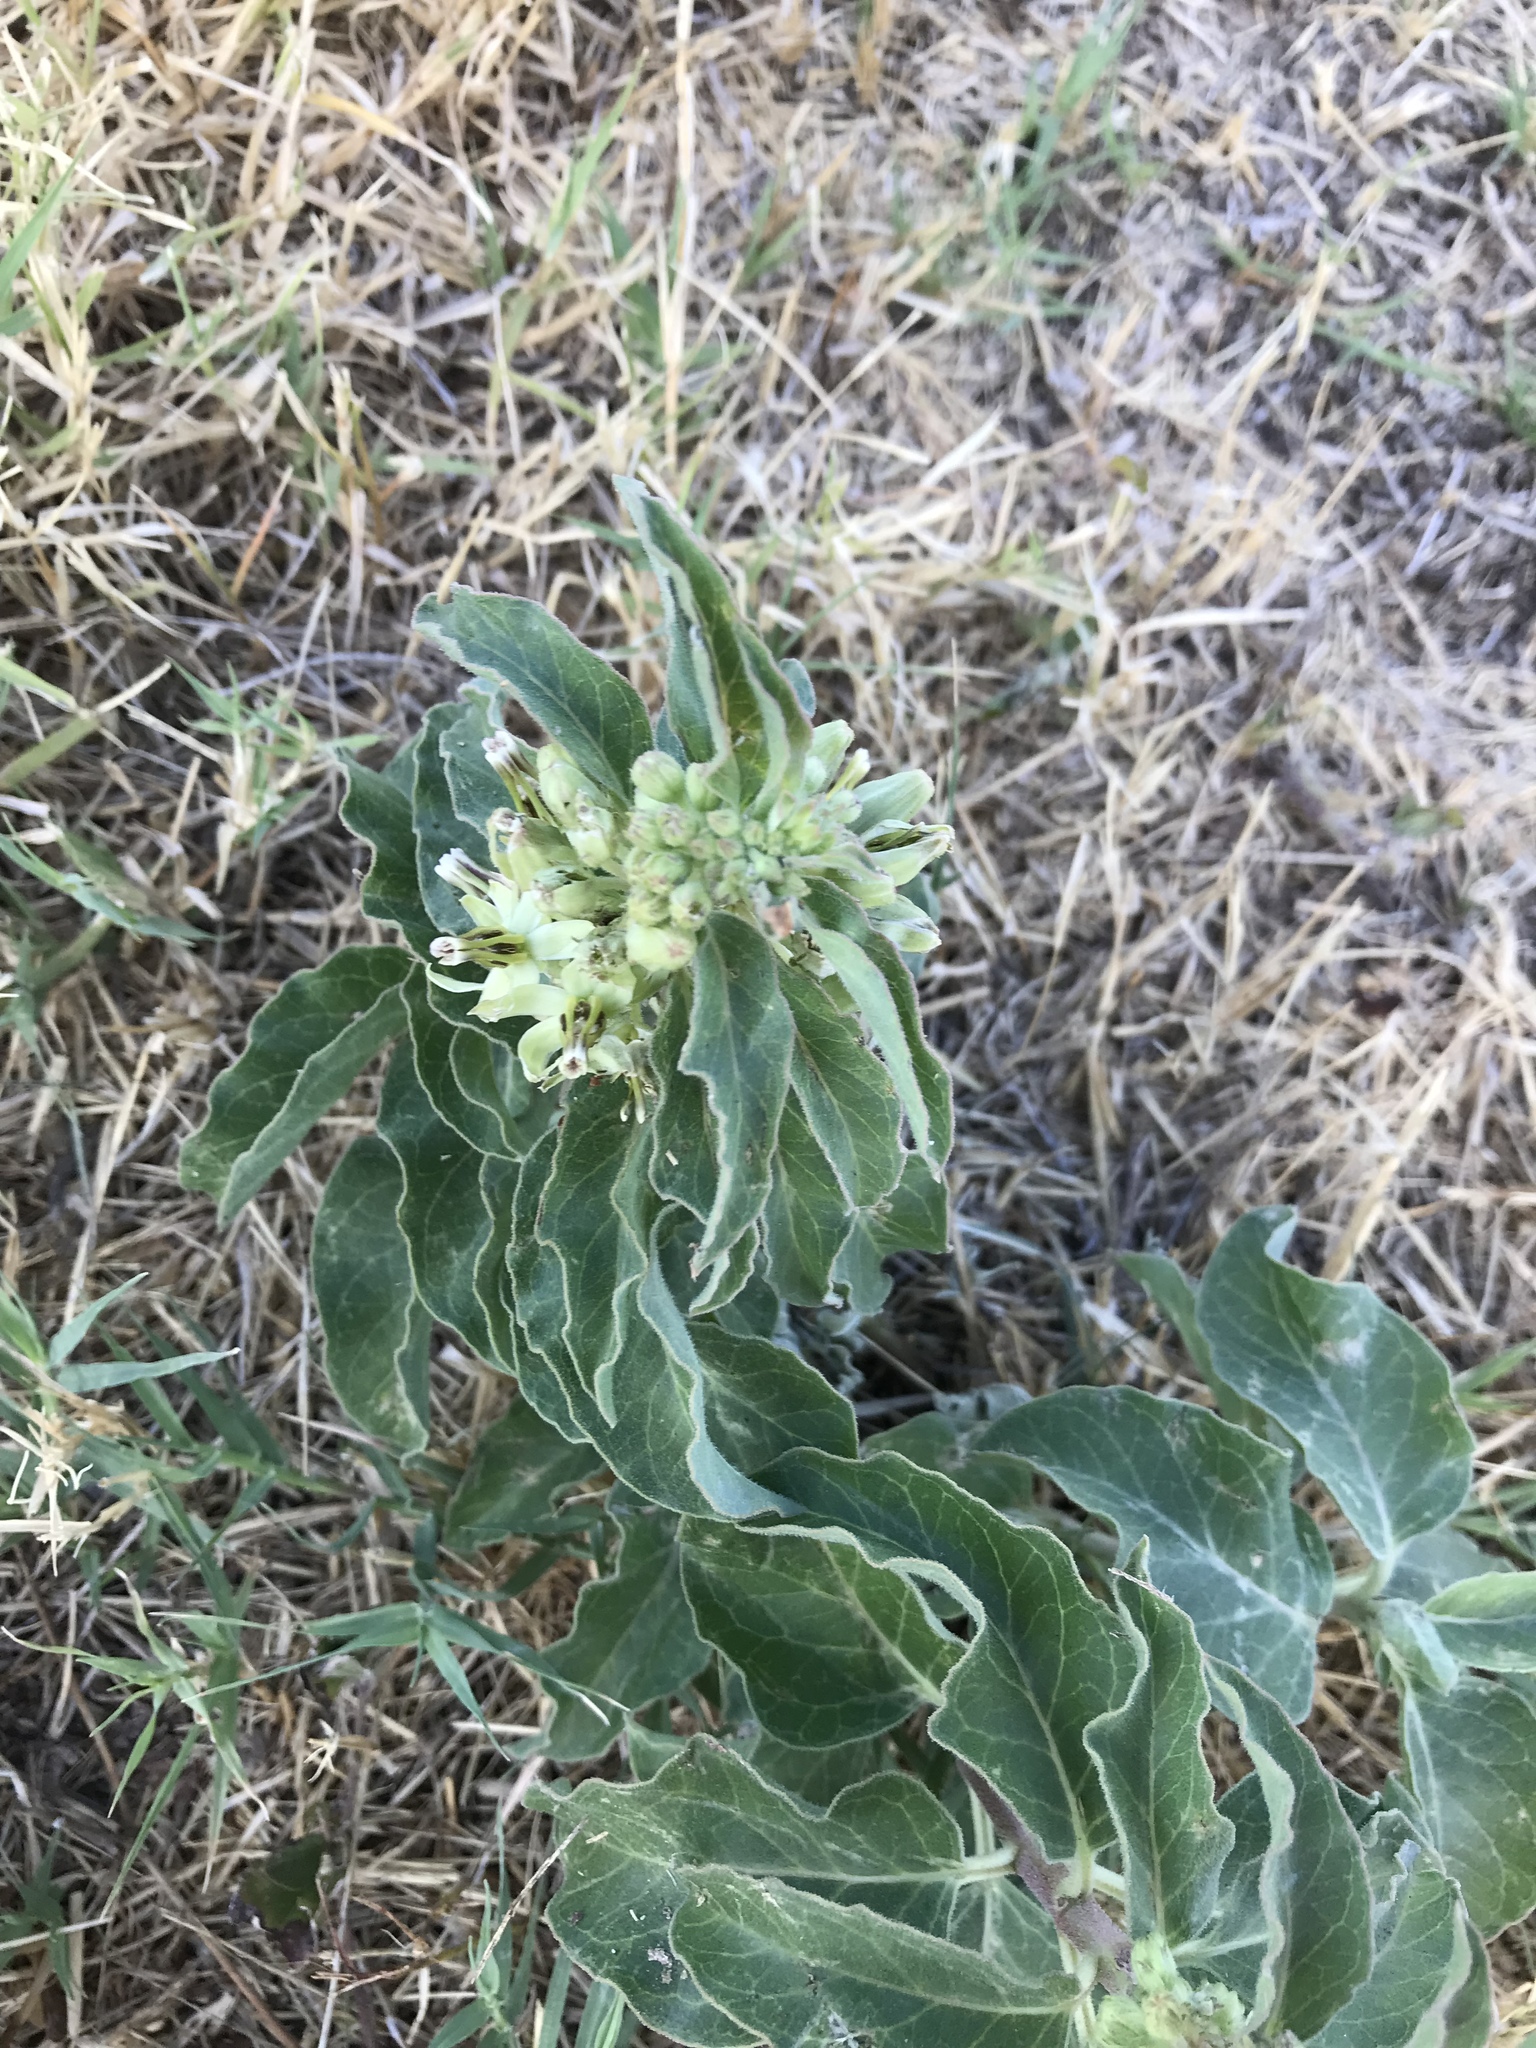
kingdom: Plantae
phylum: Tracheophyta
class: Magnoliopsida
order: Gentianales
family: Apocynaceae
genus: Asclepias
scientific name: Asclepias oenotheroides
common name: Zizotes milkweed
